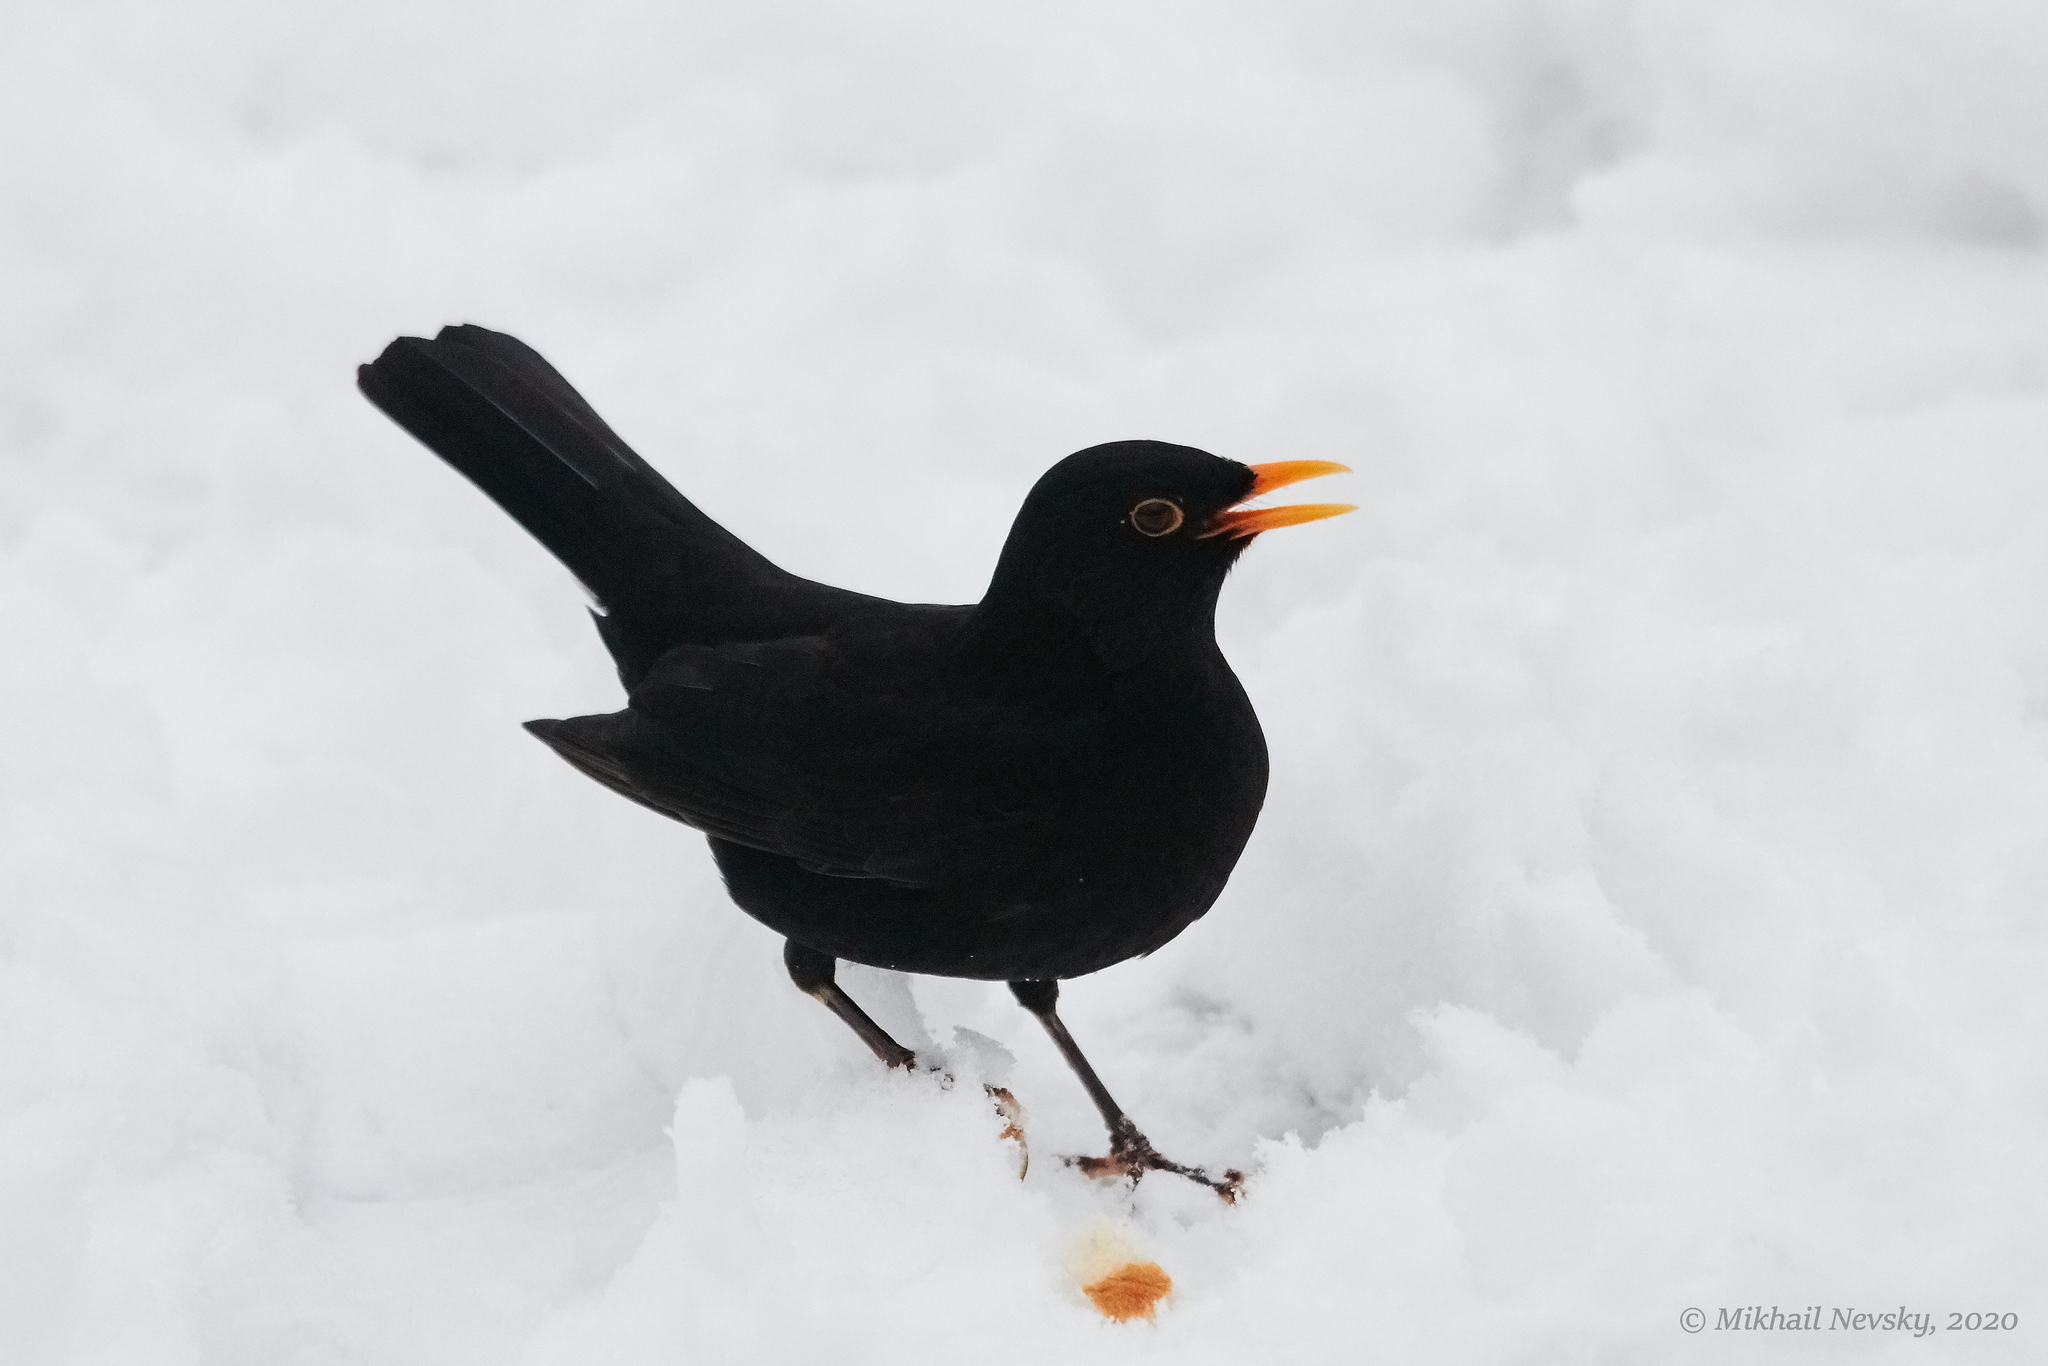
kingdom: Animalia
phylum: Chordata
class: Aves
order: Passeriformes
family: Turdidae
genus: Turdus
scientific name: Turdus merula
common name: Common blackbird
